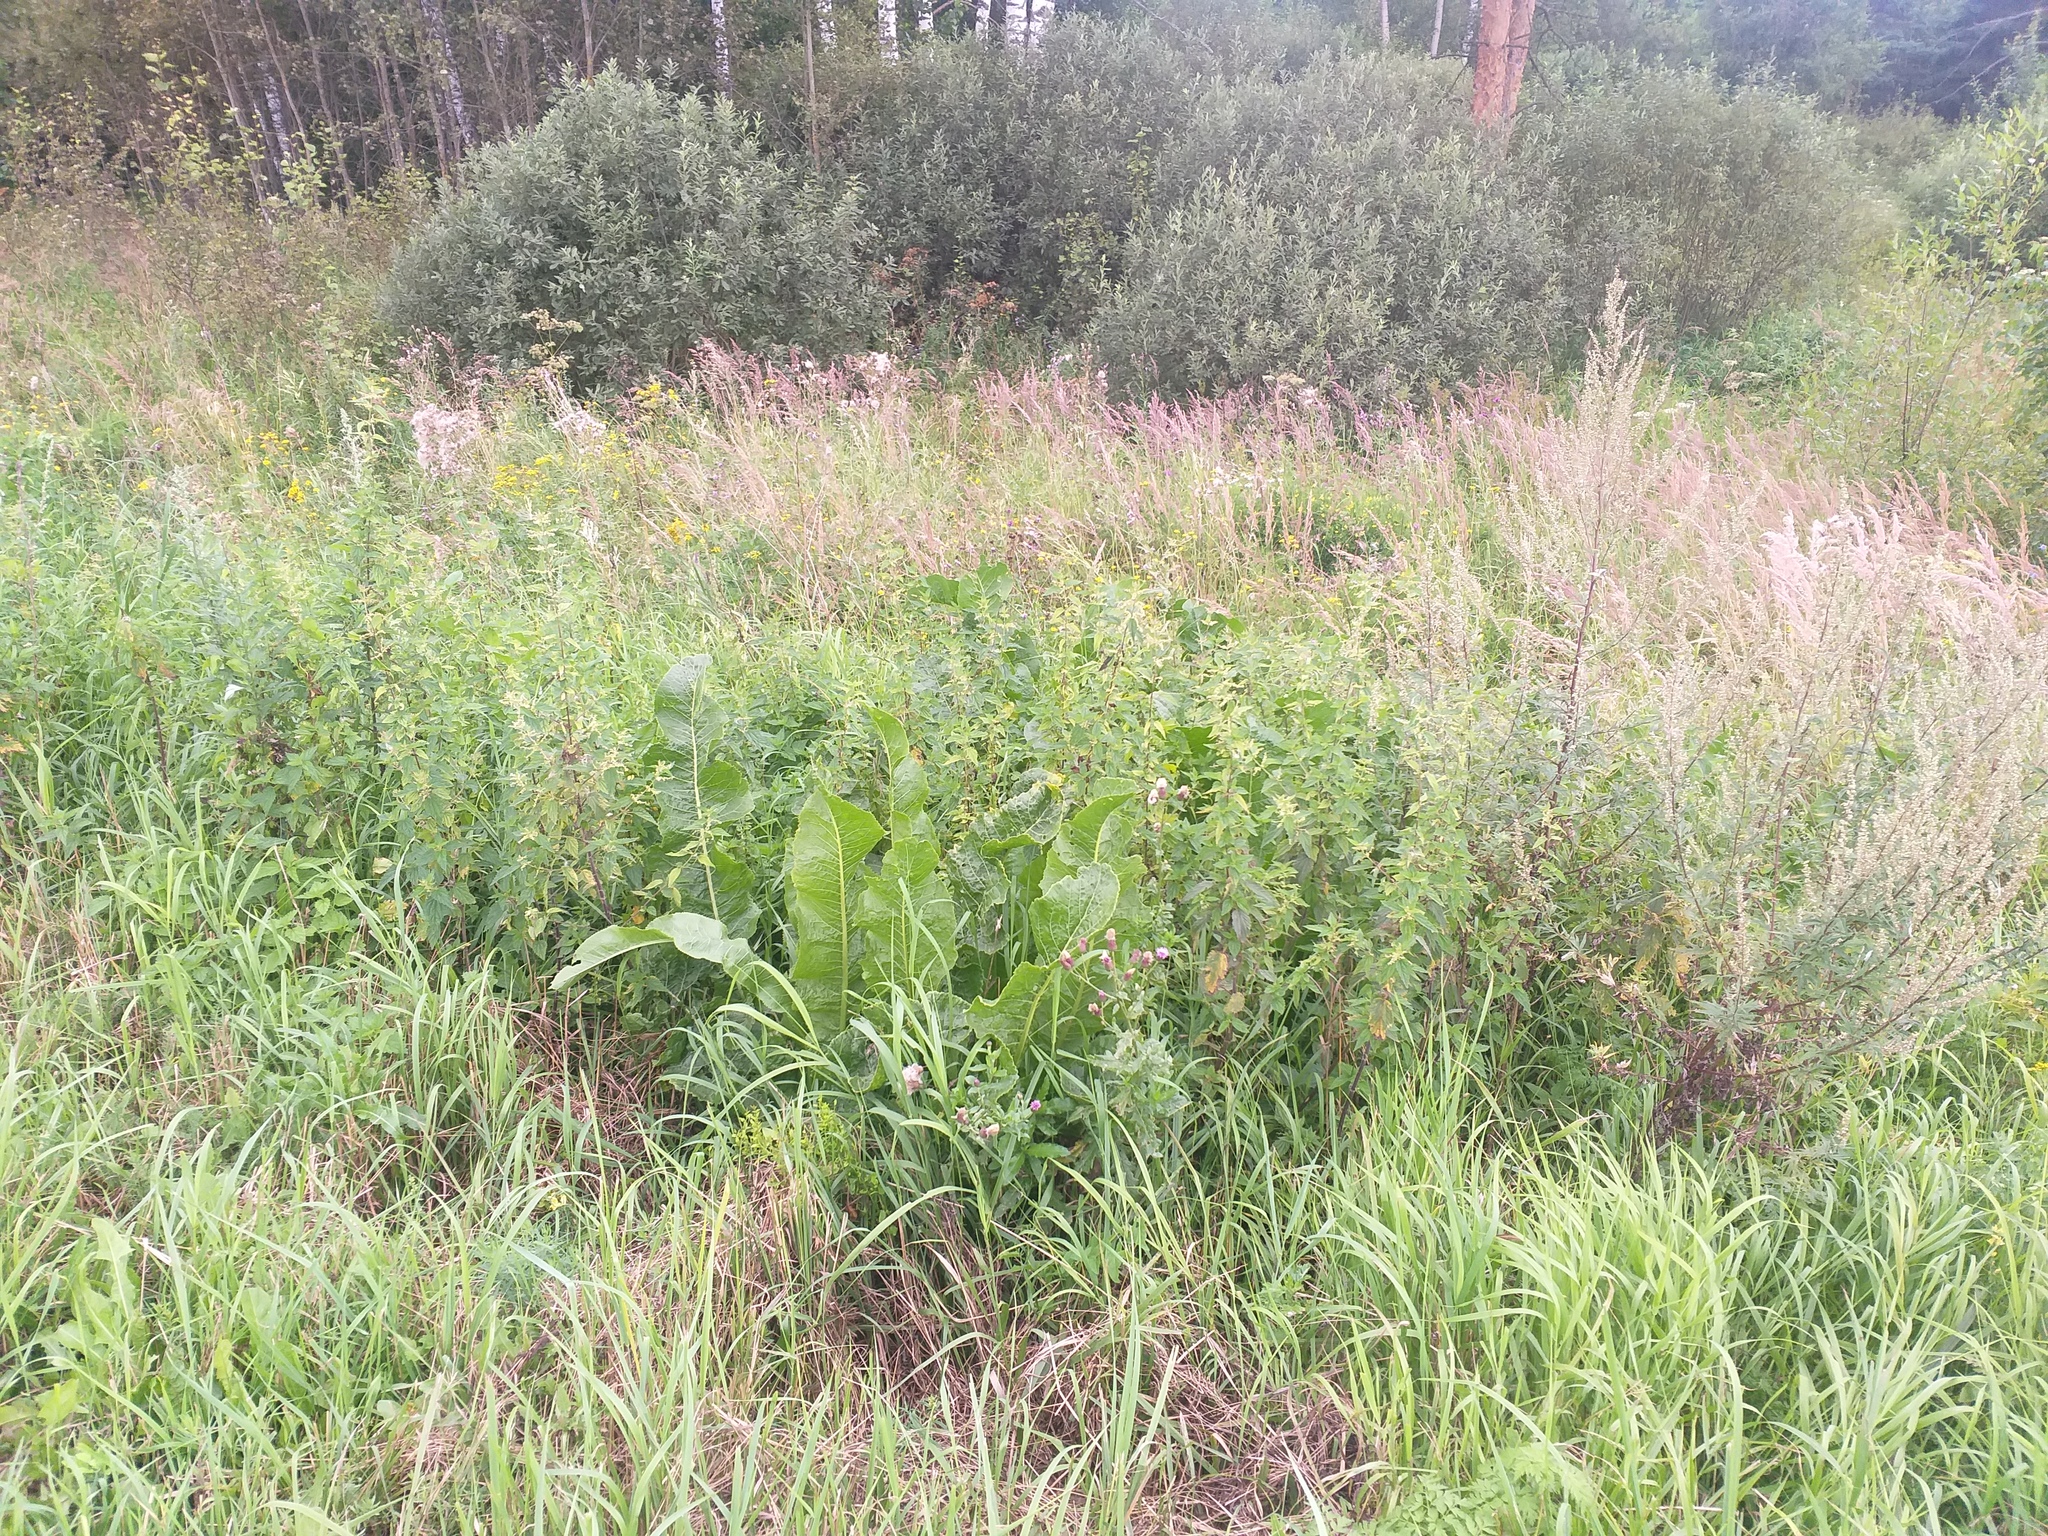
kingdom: Plantae
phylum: Tracheophyta
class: Magnoliopsida
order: Brassicales
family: Brassicaceae
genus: Armoracia
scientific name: Armoracia rusticana
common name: Horseradish
